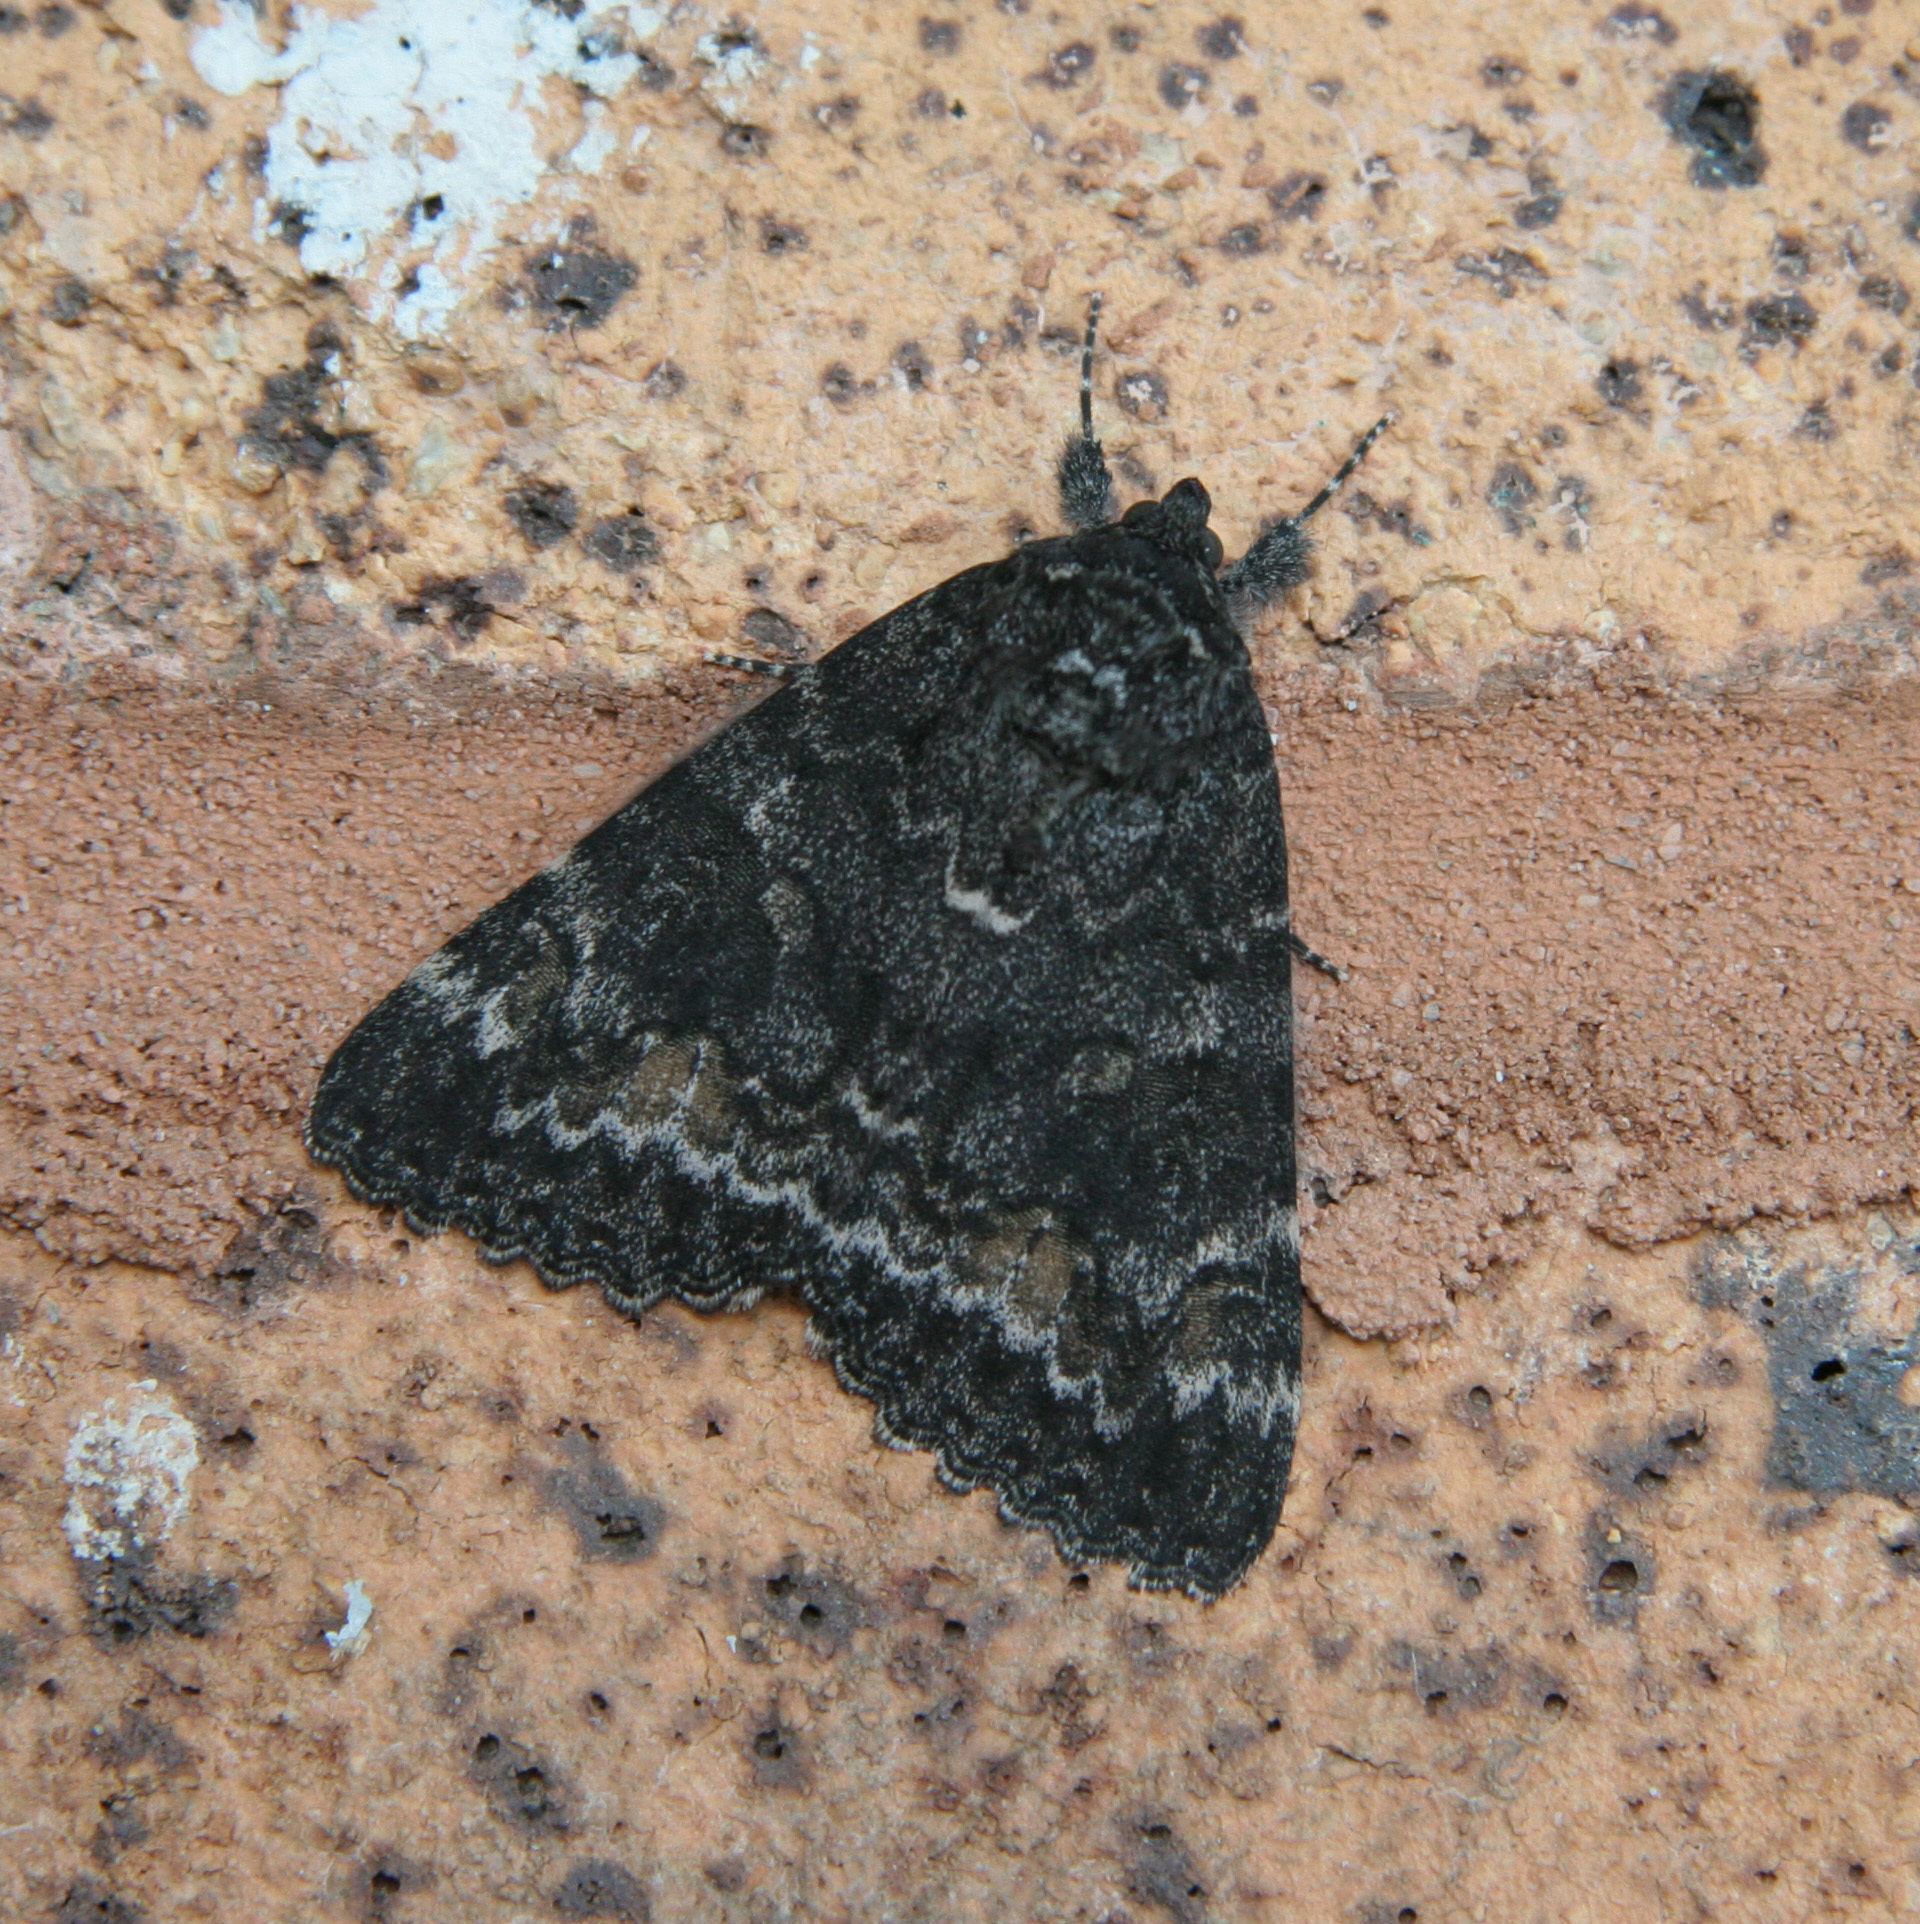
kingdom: Animalia
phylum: Arthropoda
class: Insecta
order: Lepidoptera
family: Erebidae
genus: Catocala
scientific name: Catocala briseis
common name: Briseis underwing
